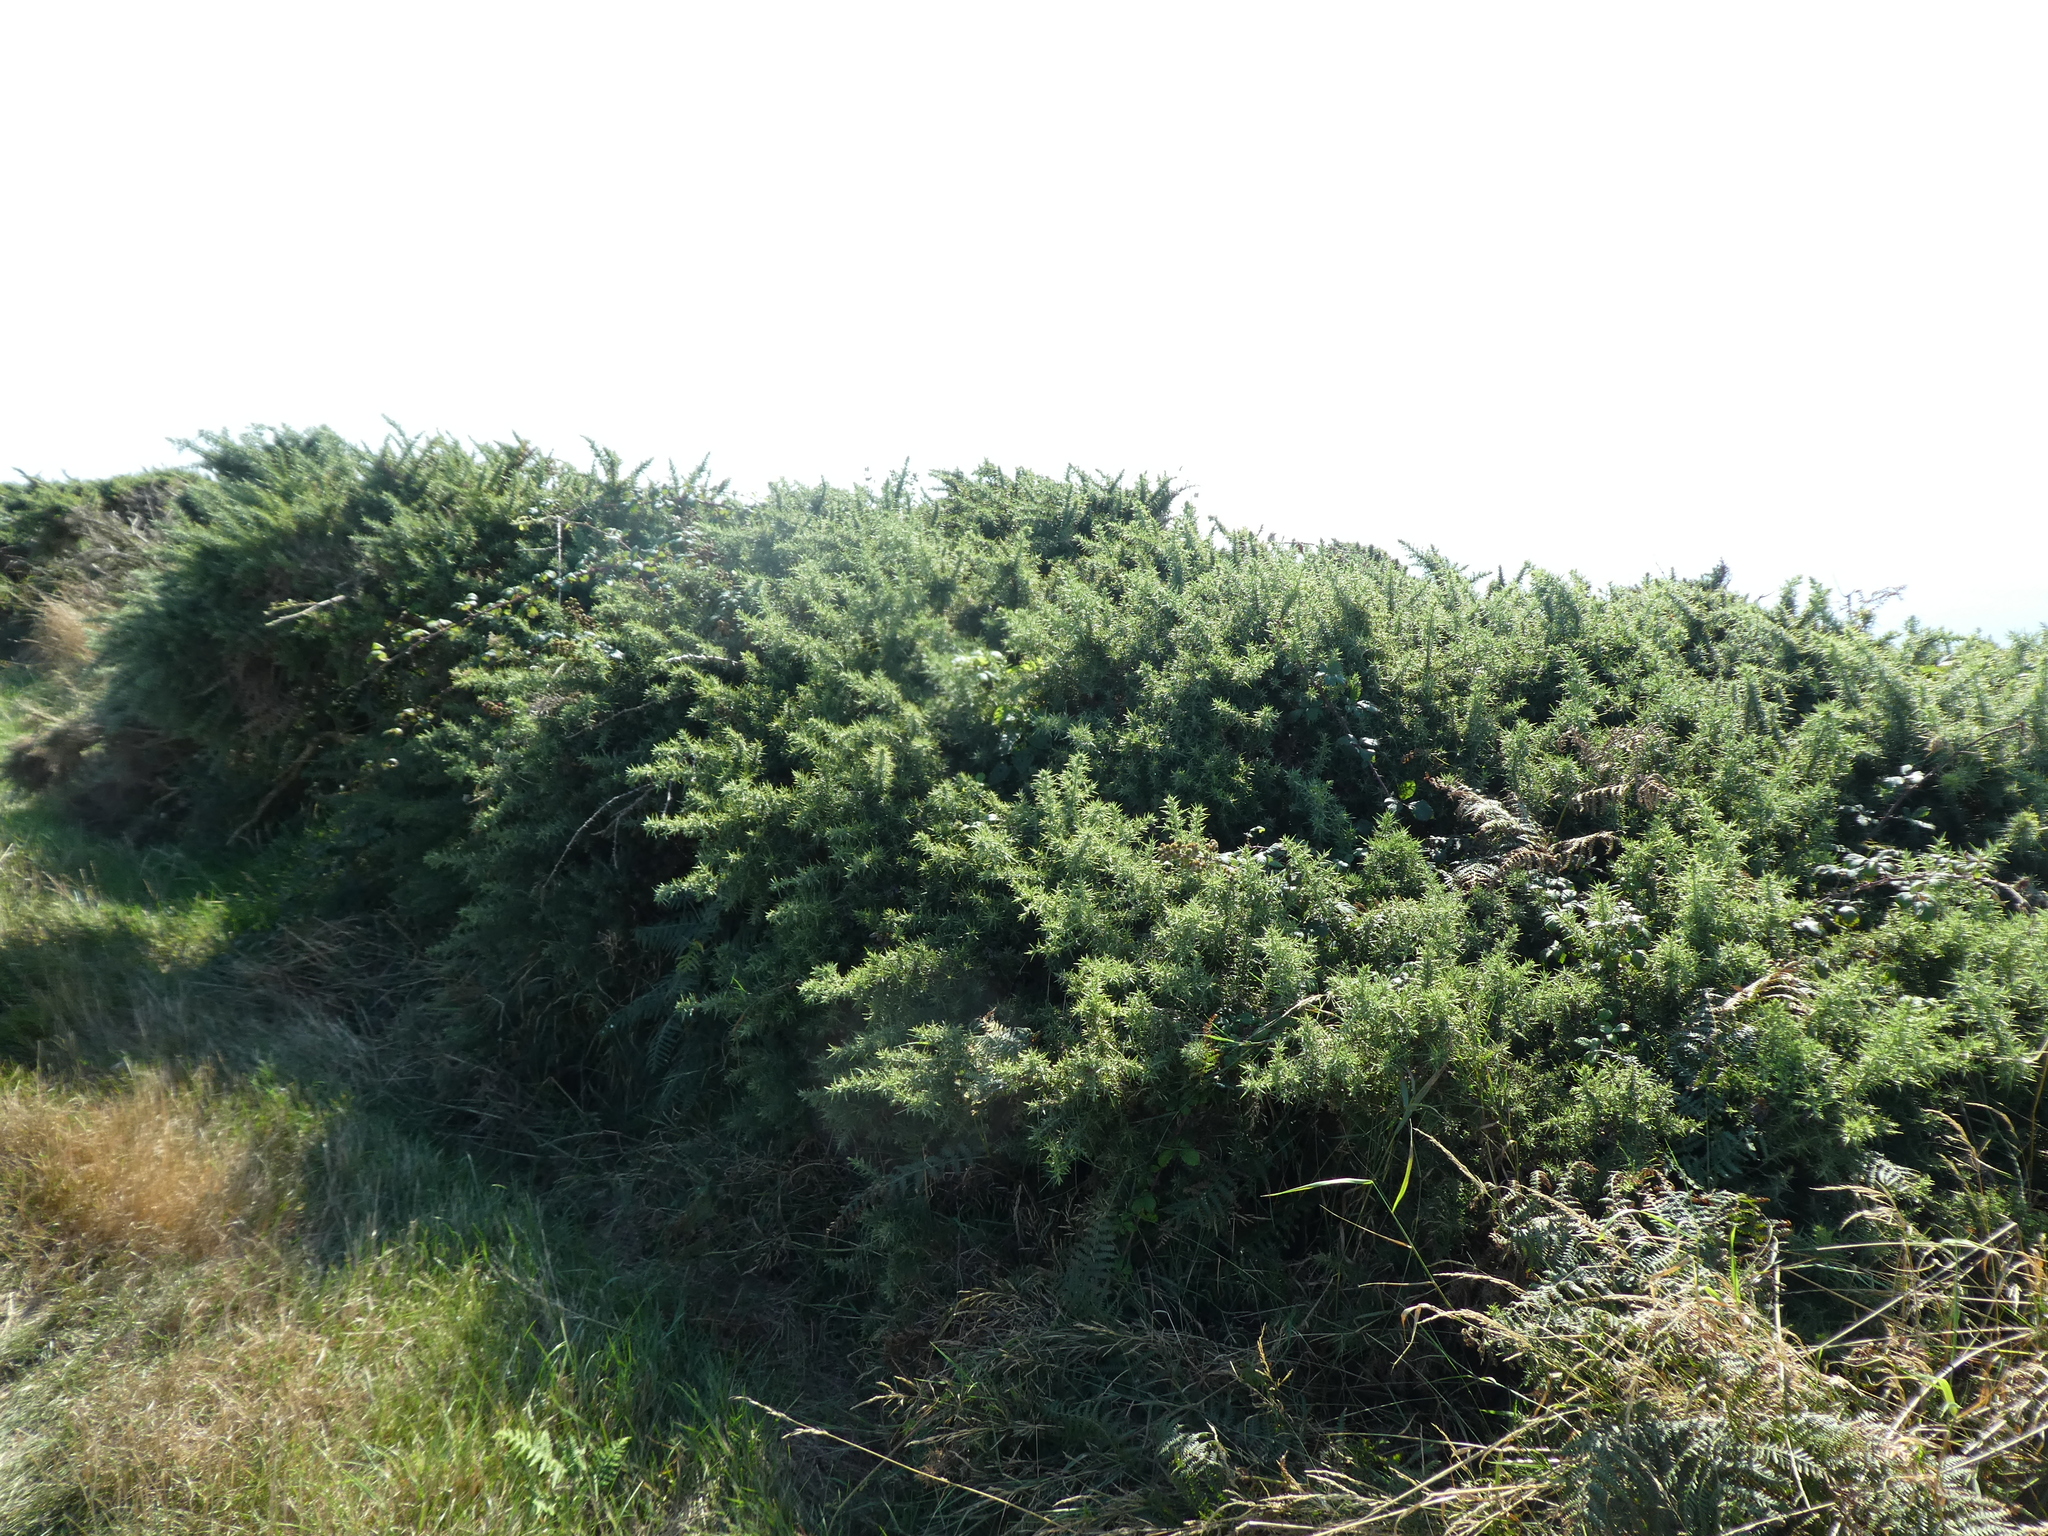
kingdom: Plantae
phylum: Tracheophyta
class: Magnoliopsida
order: Fabales
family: Fabaceae
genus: Ulex
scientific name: Ulex europaeus
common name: Common gorse
